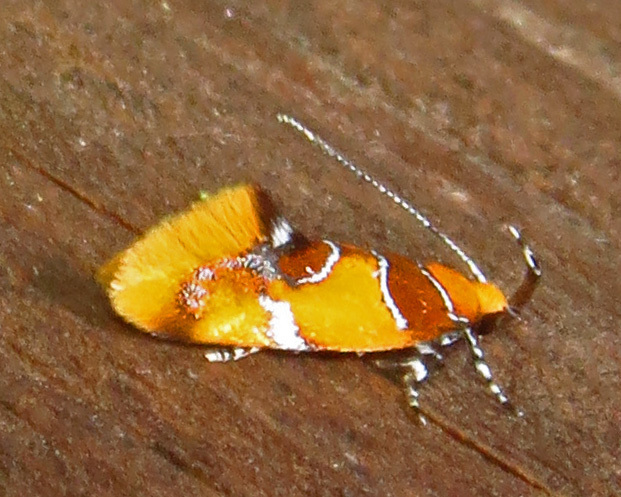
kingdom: Animalia
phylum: Arthropoda
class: Insecta
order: Lepidoptera
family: Oecophoridae
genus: Callima
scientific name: Callima argenticinctella
